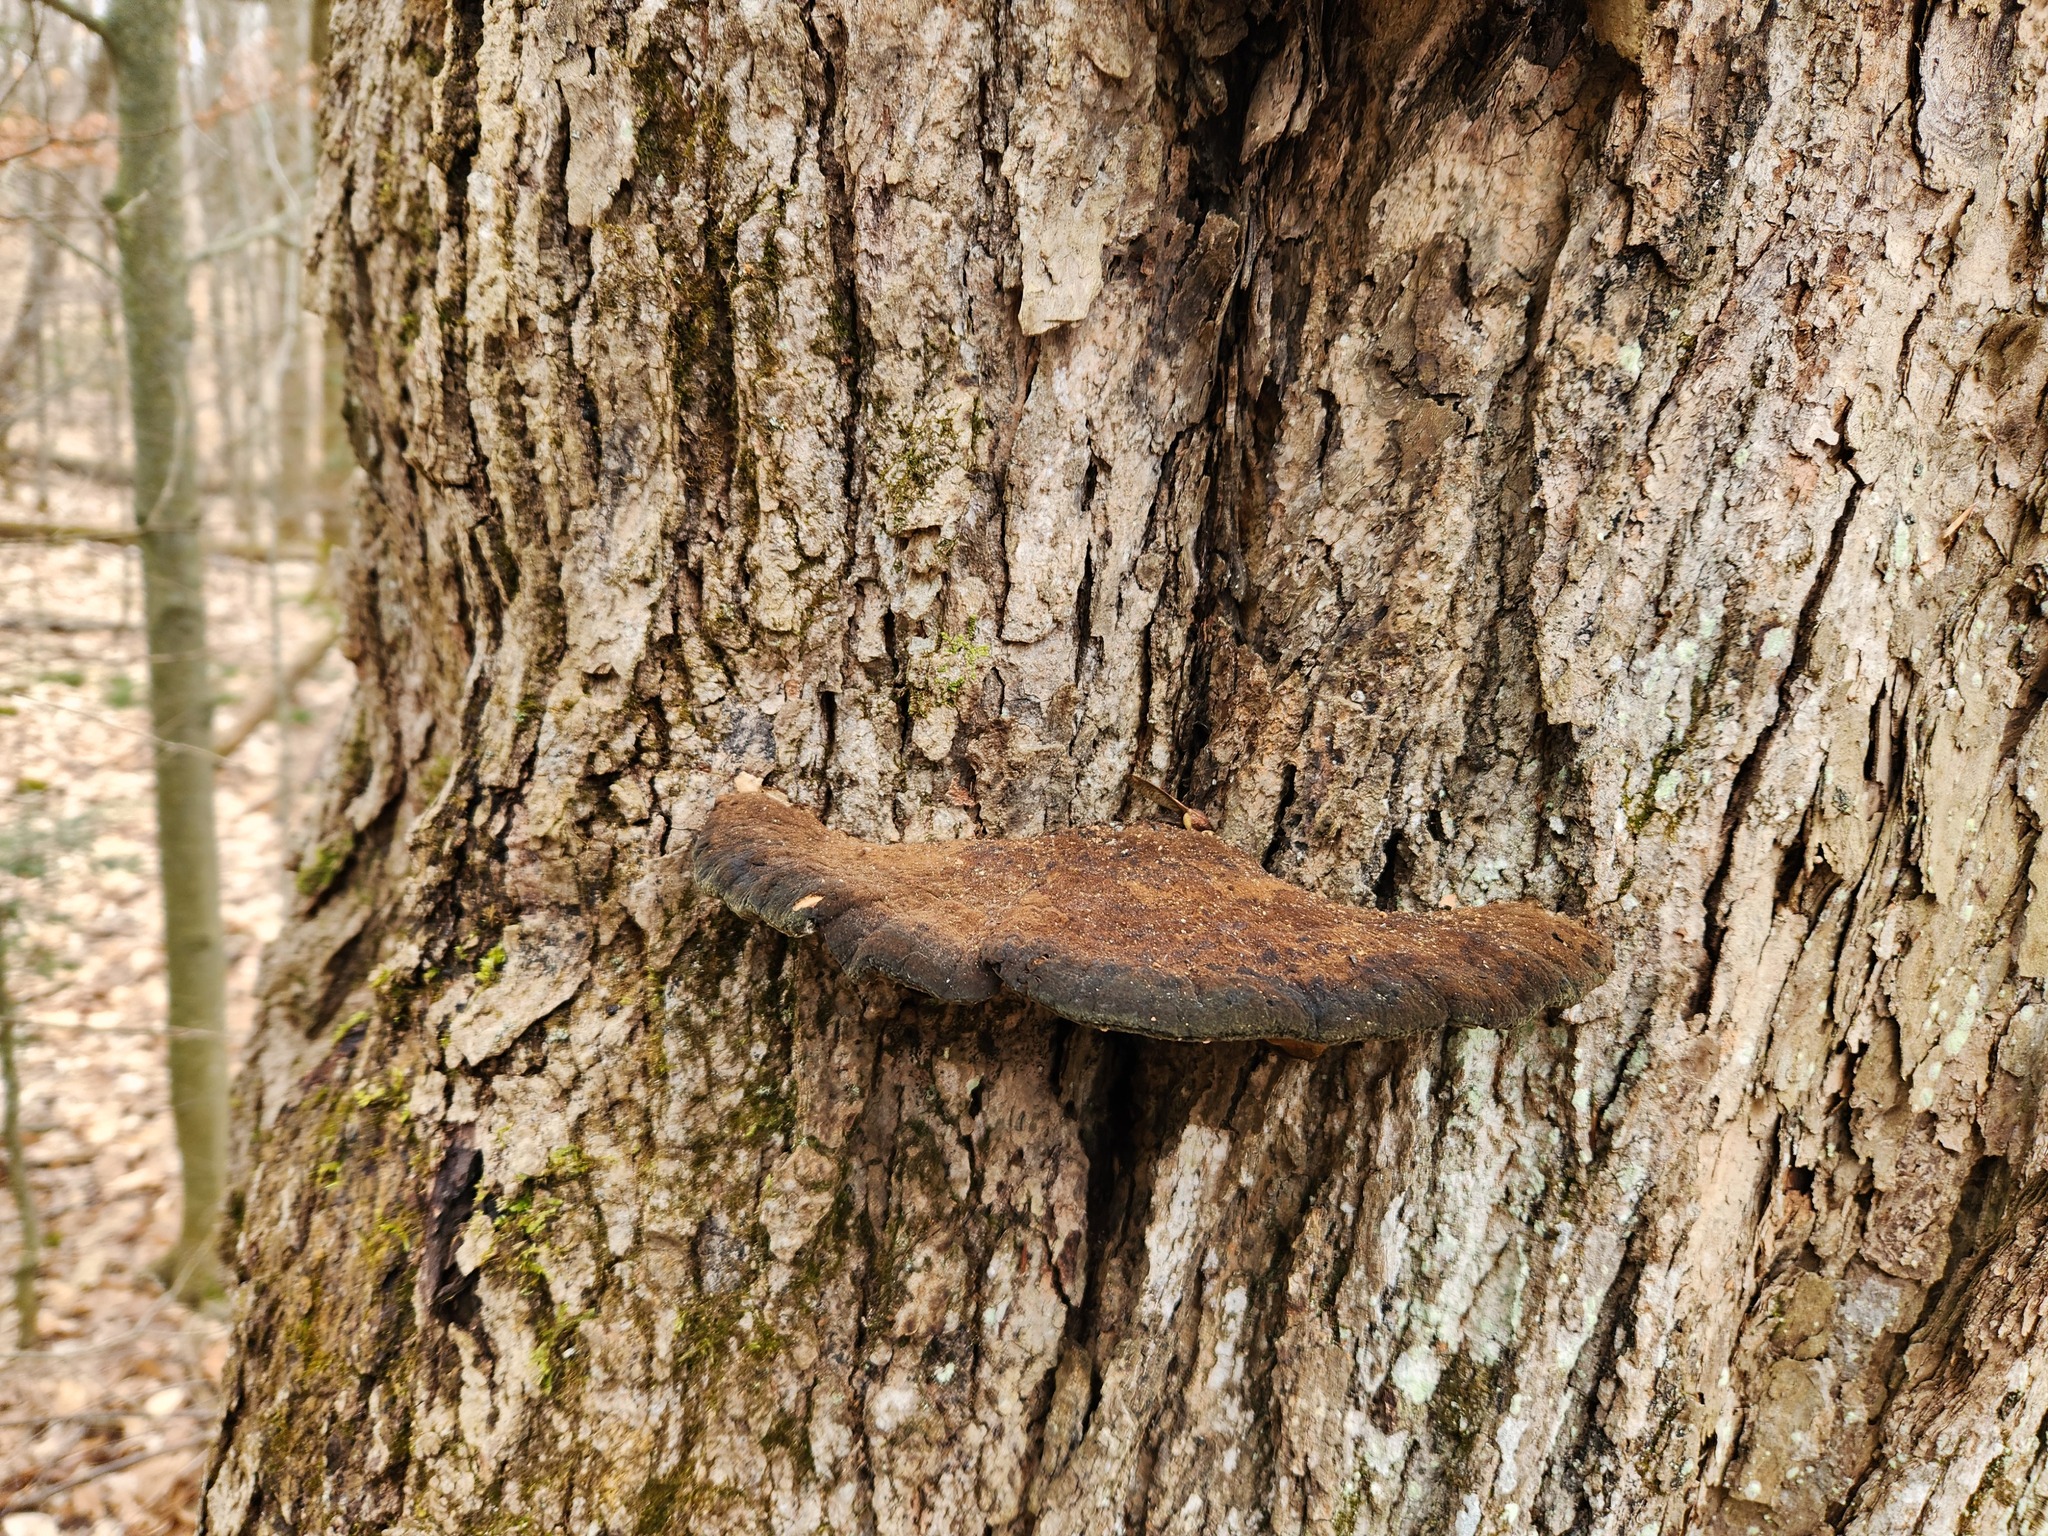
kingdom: Fungi
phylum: Basidiomycota
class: Agaricomycetes
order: Polyporales
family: Ischnodermataceae
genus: Ischnoderma
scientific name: Ischnoderma resinosum
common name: Resinous polypore
